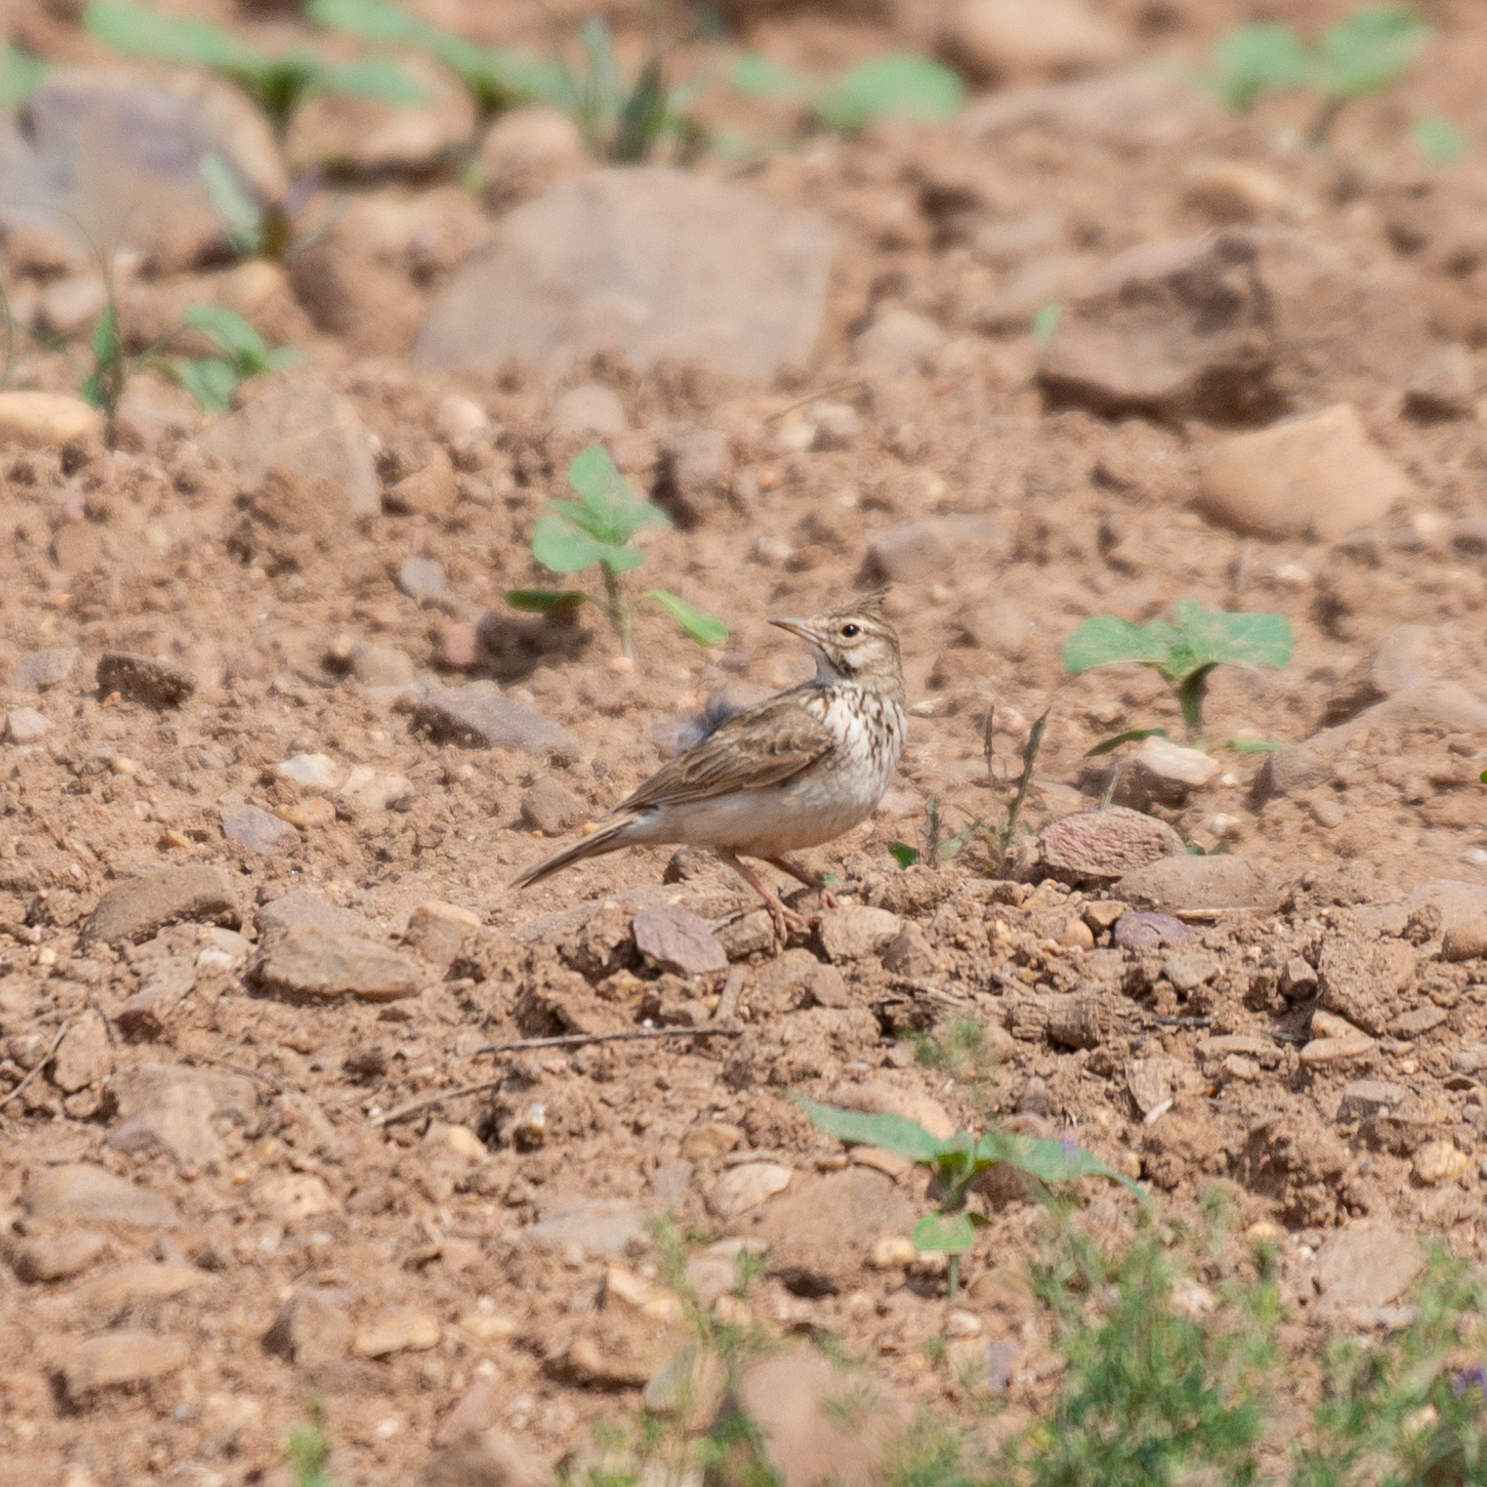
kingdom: Animalia
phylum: Chordata
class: Aves
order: Passeriformes
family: Alaudidae
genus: Galerida
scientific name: Galerida cristata
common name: Crested lark
